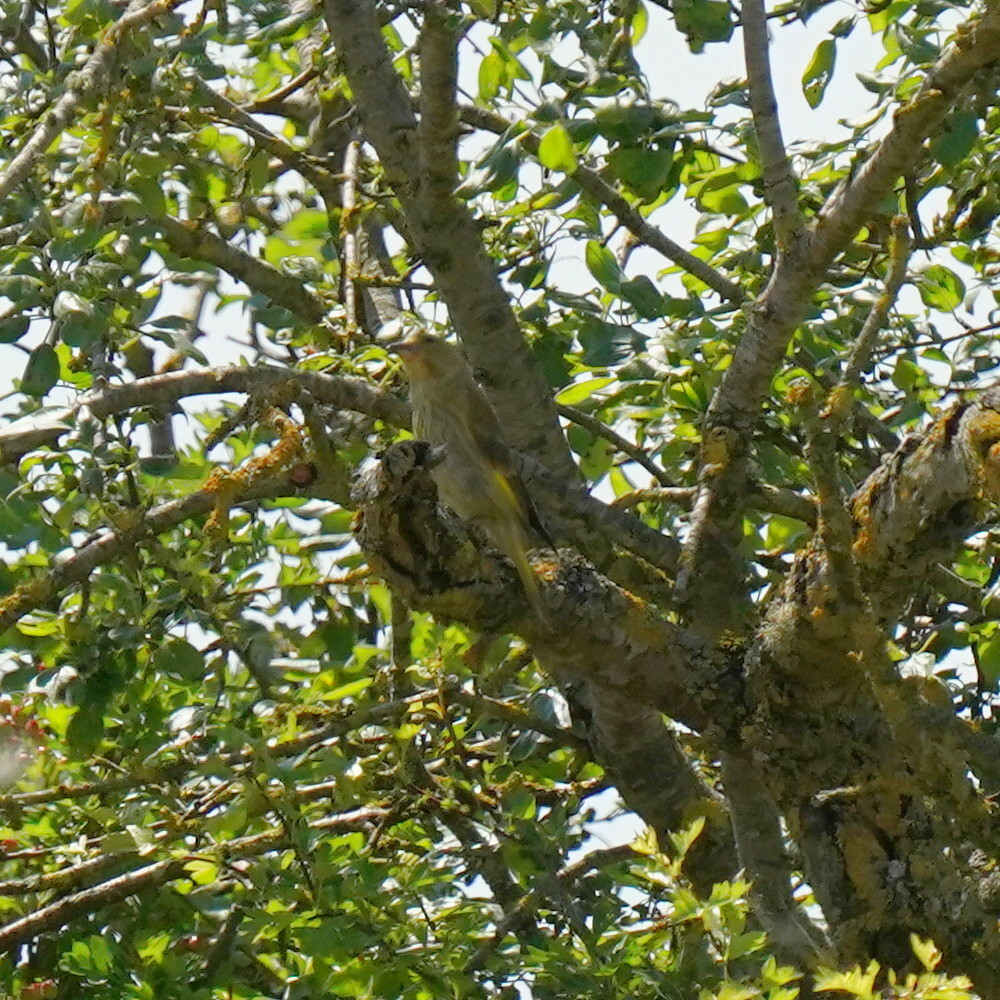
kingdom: Plantae
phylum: Tracheophyta
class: Liliopsida
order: Poales
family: Poaceae
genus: Chloris
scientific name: Chloris chloris
